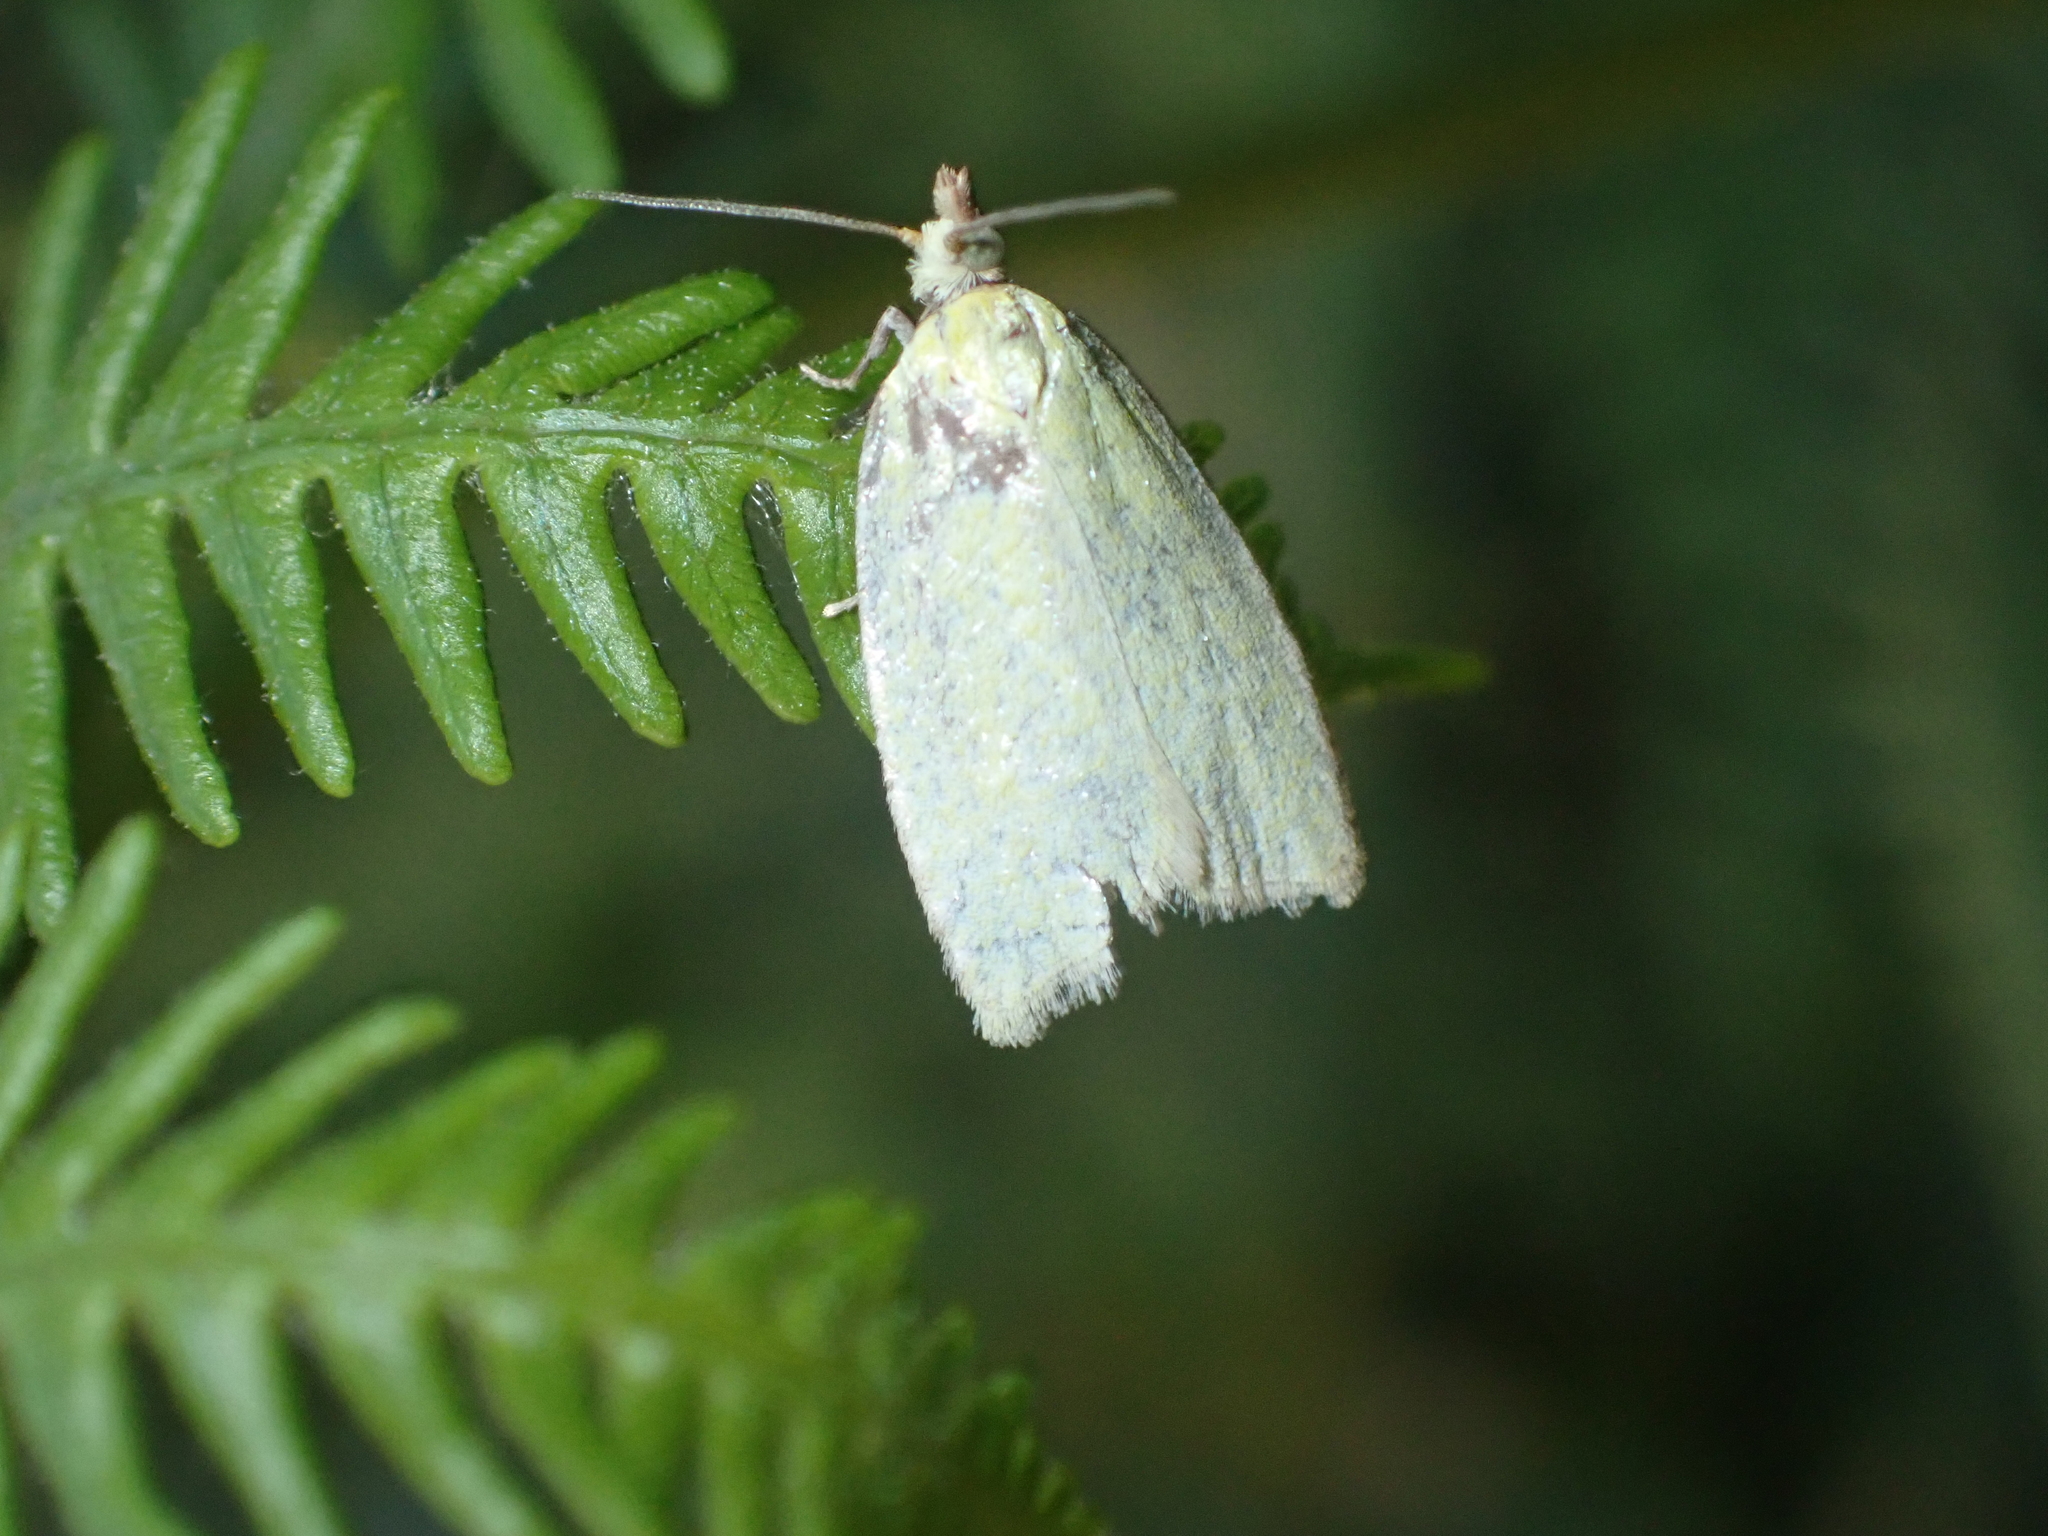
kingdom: Animalia
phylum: Arthropoda
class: Insecta
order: Lepidoptera
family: Tortricidae
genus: Tortrix
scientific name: Tortrix viridana
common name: Green oak tortrix
